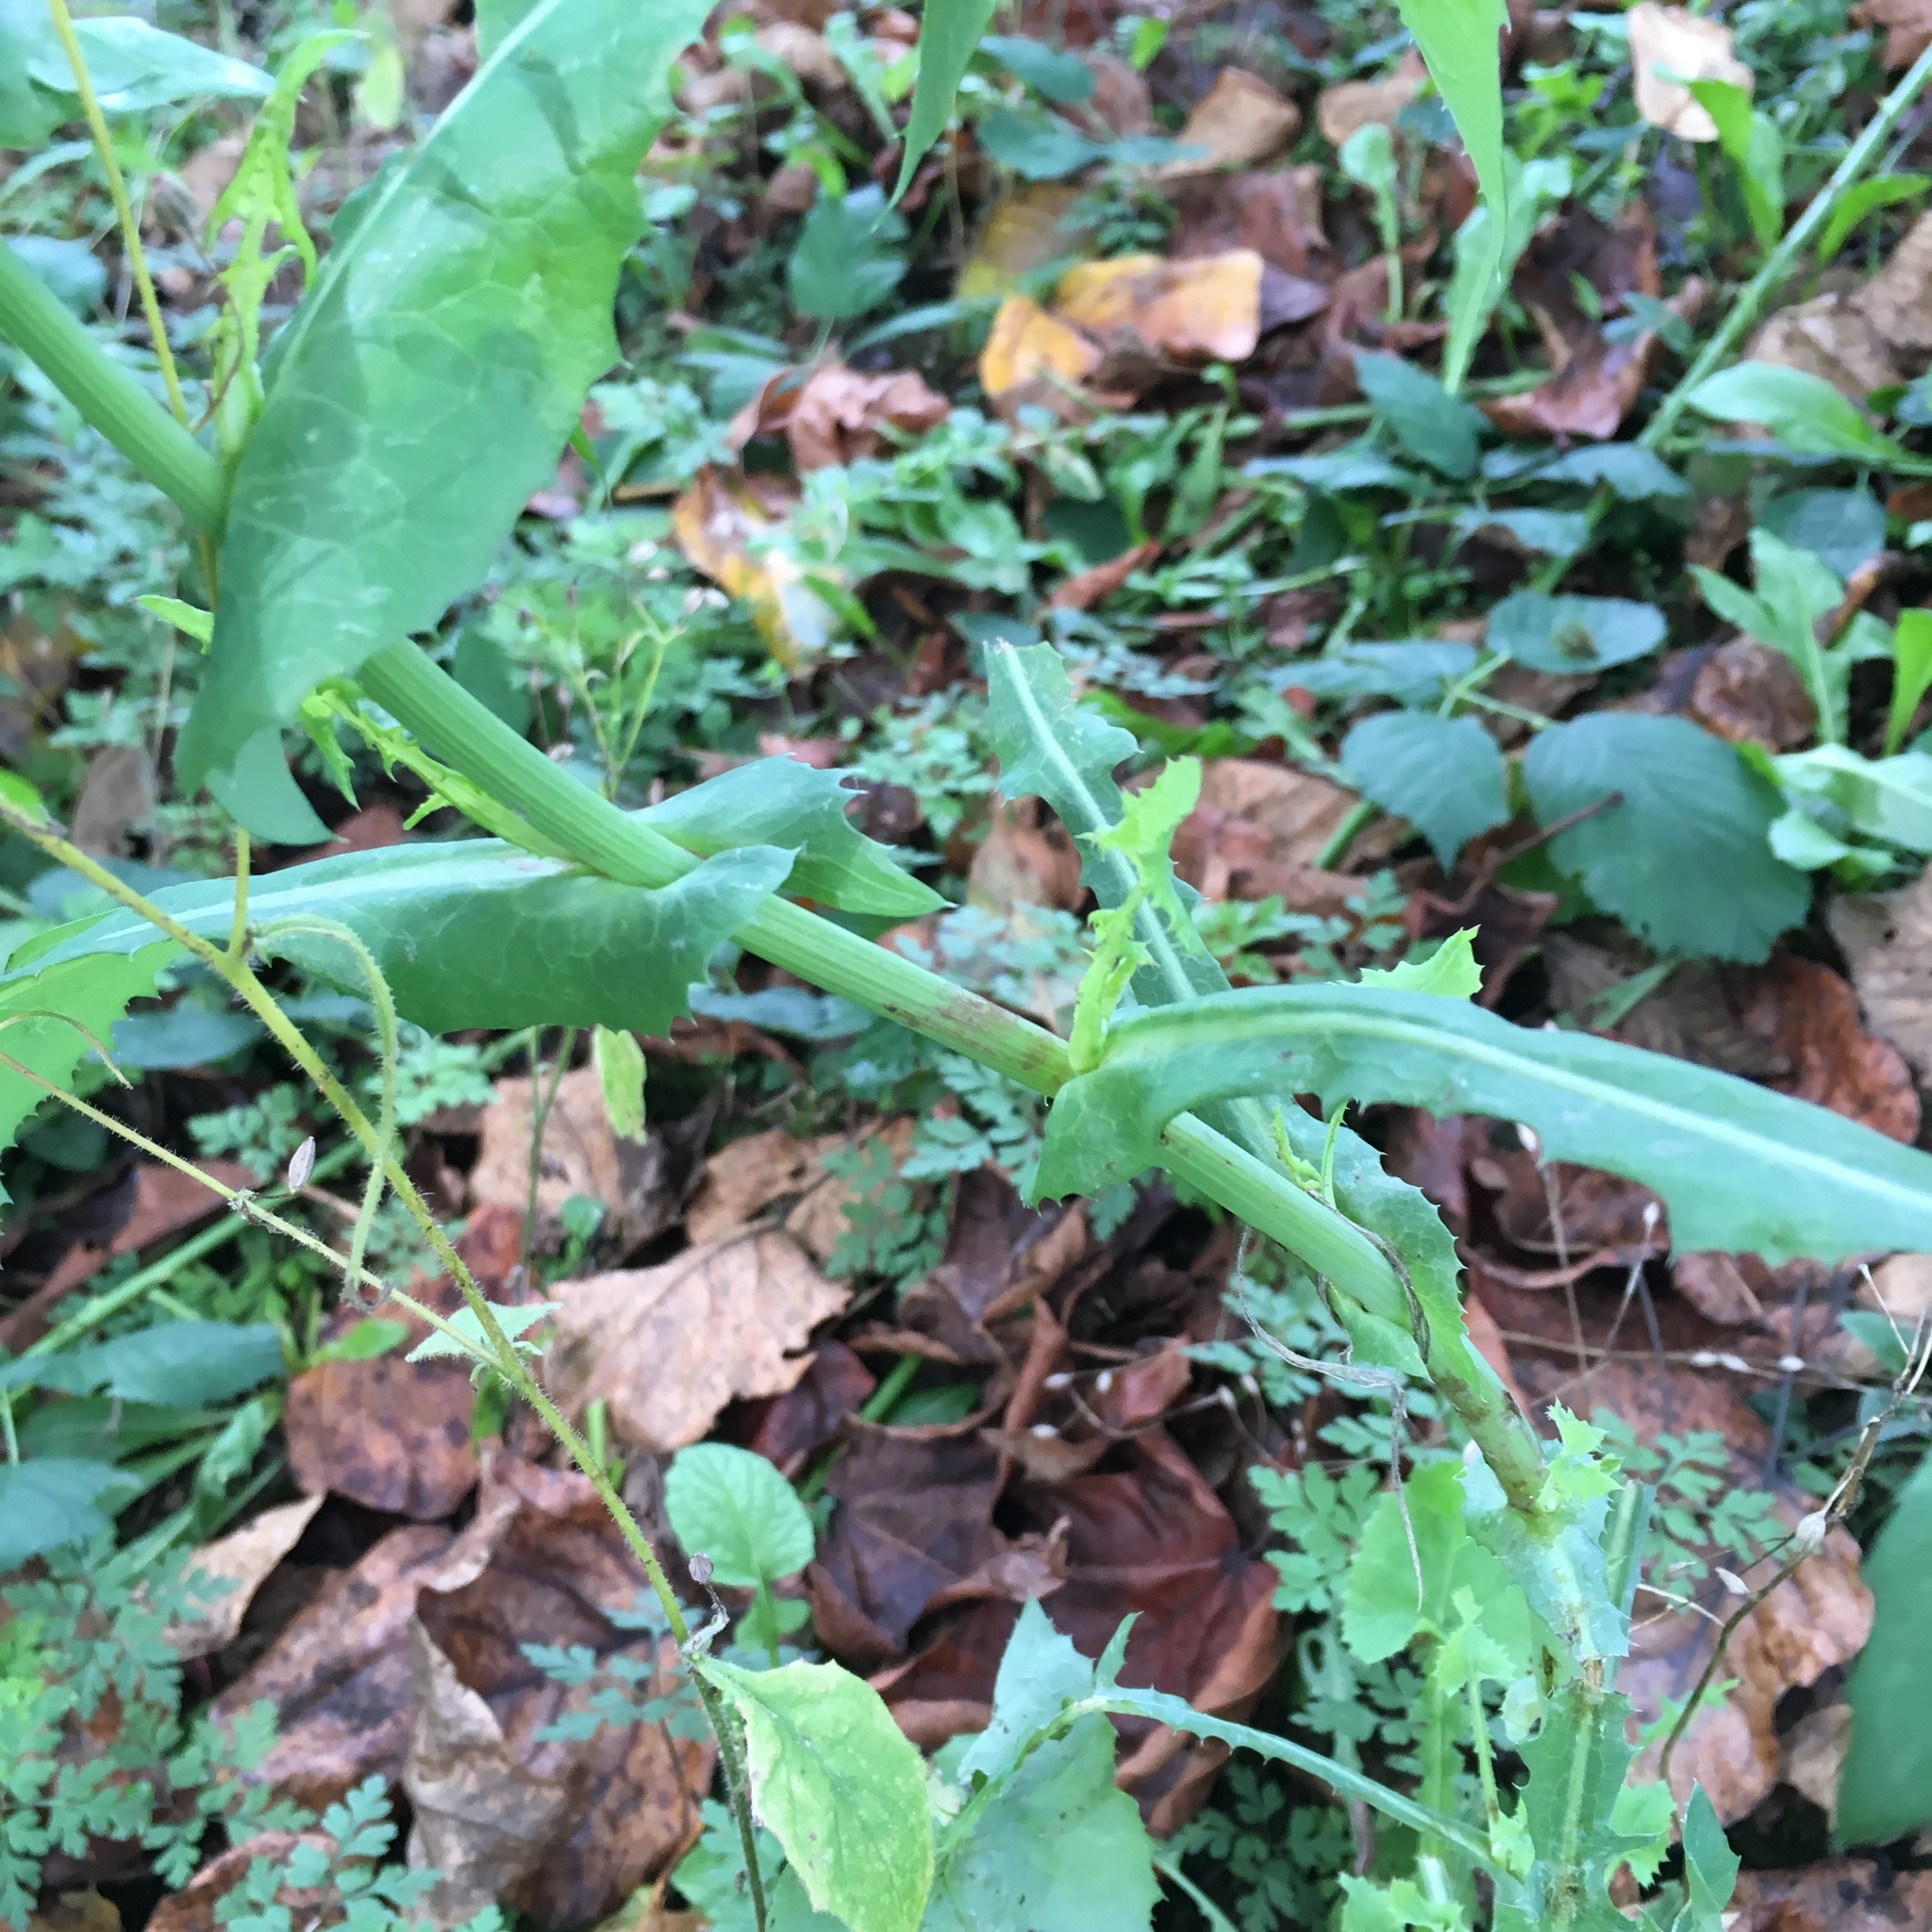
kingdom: Plantae
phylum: Tracheophyta
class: Magnoliopsida
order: Asterales
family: Asteraceae
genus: Sonchus
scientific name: Sonchus oleraceus
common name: Common sowthistle
